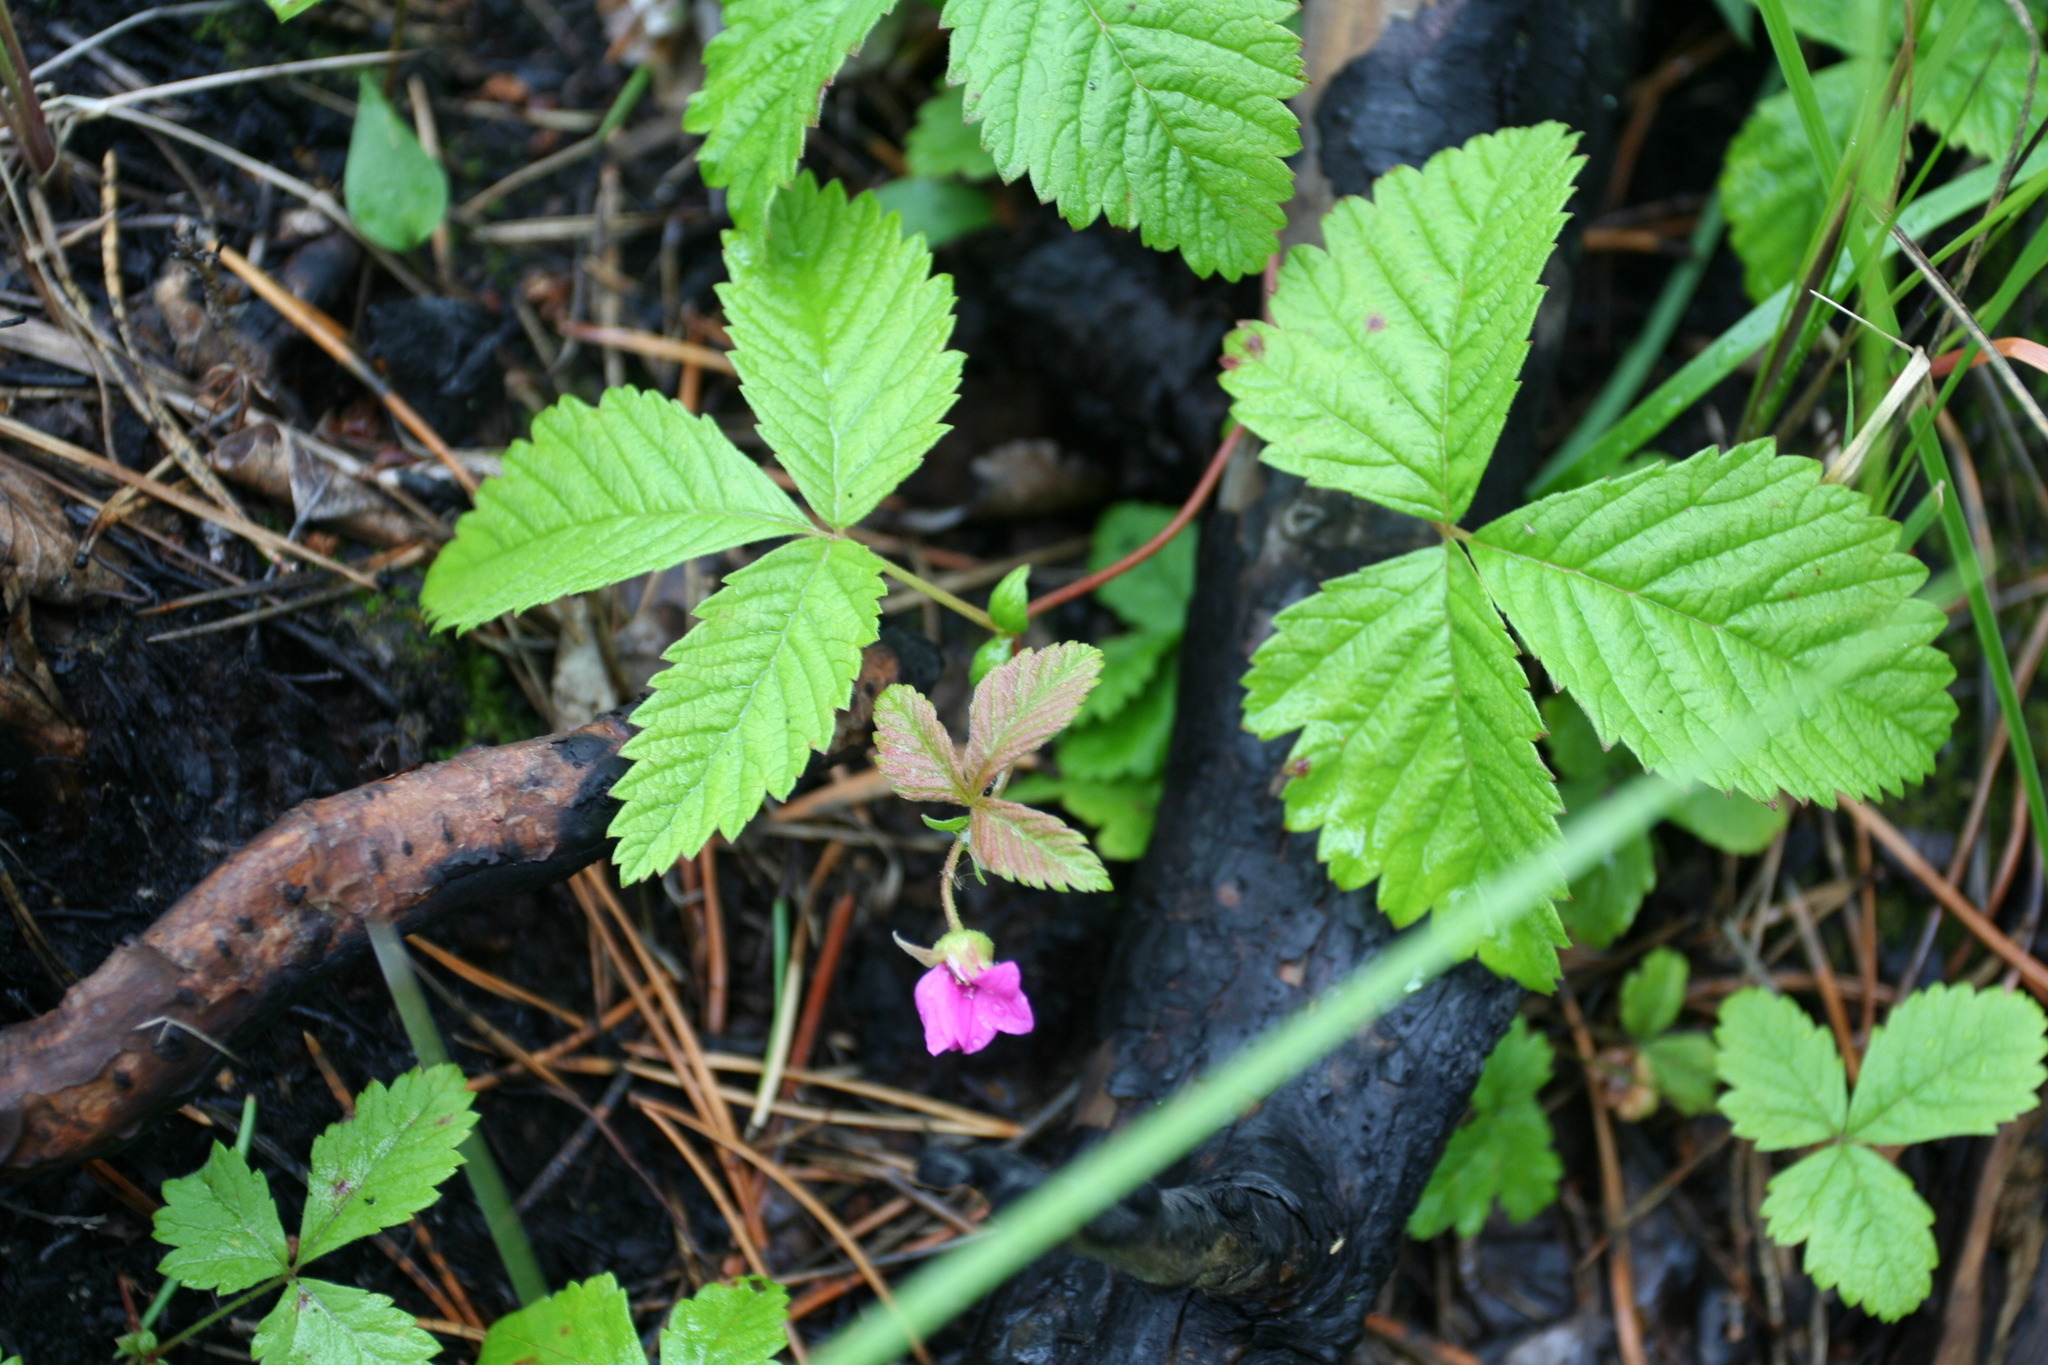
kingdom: Plantae
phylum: Tracheophyta
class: Magnoliopsida
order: Rosales
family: Rosaceae
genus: Rubus
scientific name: Rubus arcticus
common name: Arctic bramble
